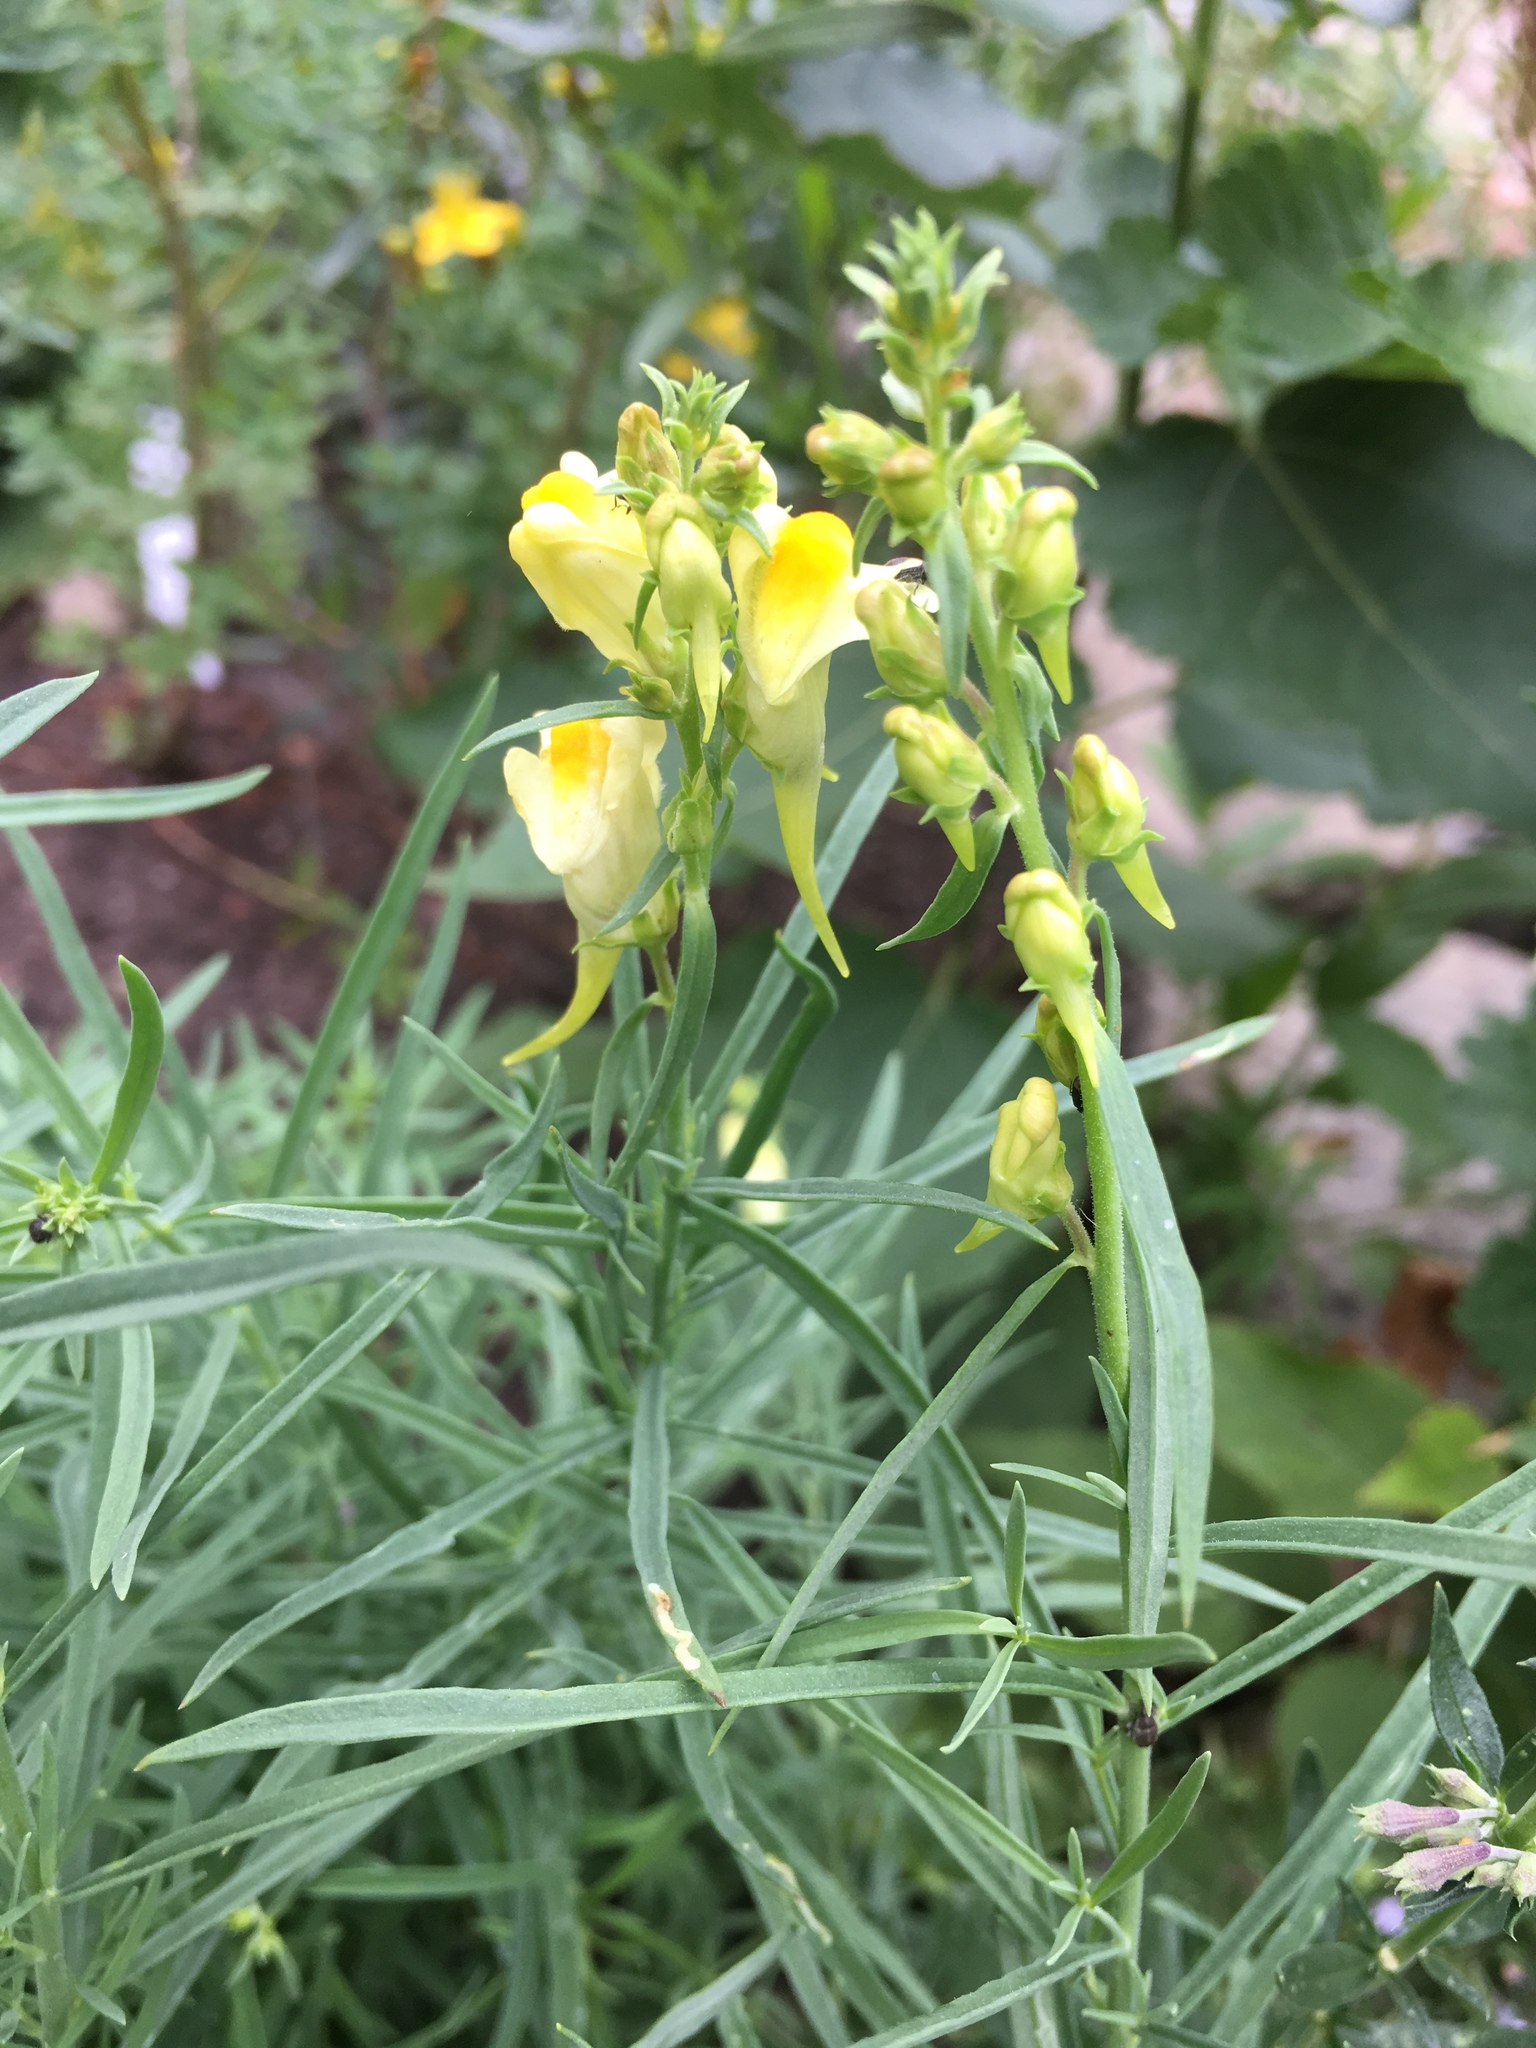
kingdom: Plantae
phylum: Tracheophyta
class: Magnoliopsida
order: Lamiales
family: Plantaginaceae
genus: Linaria
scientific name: Linaria vulgaris
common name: Butter and eggs
